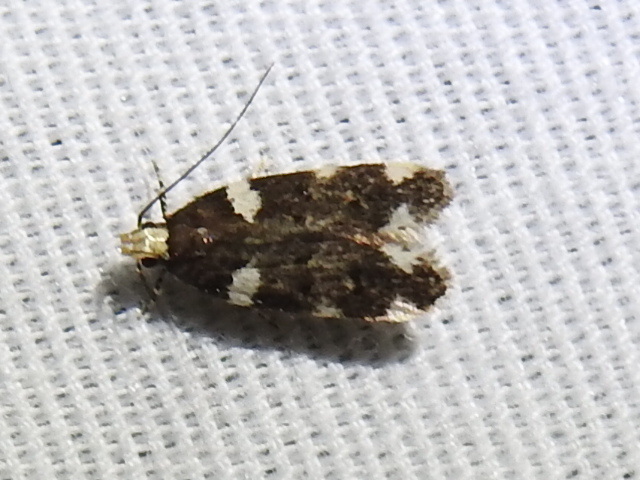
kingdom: Animalia
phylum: Arthropoda
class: Insecta
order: Lepidoptera
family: Gelechiidae
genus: Fascista
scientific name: Fascista cercerisella
